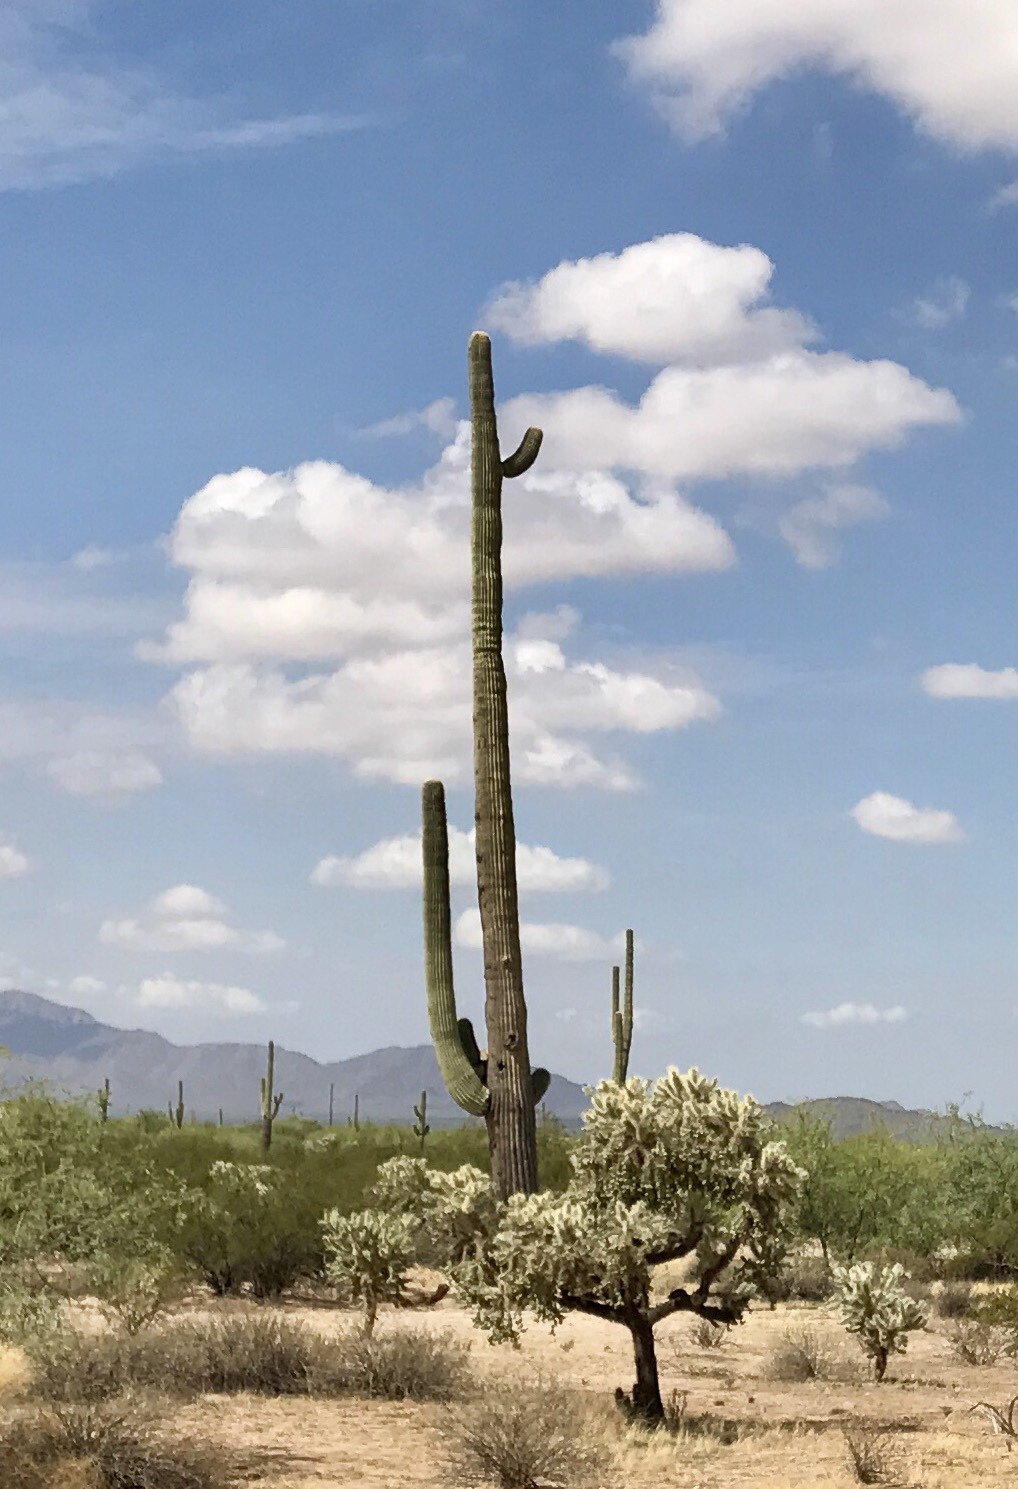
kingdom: Plantae
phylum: Tracheophyta
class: Magnoliopsida
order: Caryophyllales
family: Cactaceae
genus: Carnegiea
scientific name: Carnegiea gigantea
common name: Saguaro
